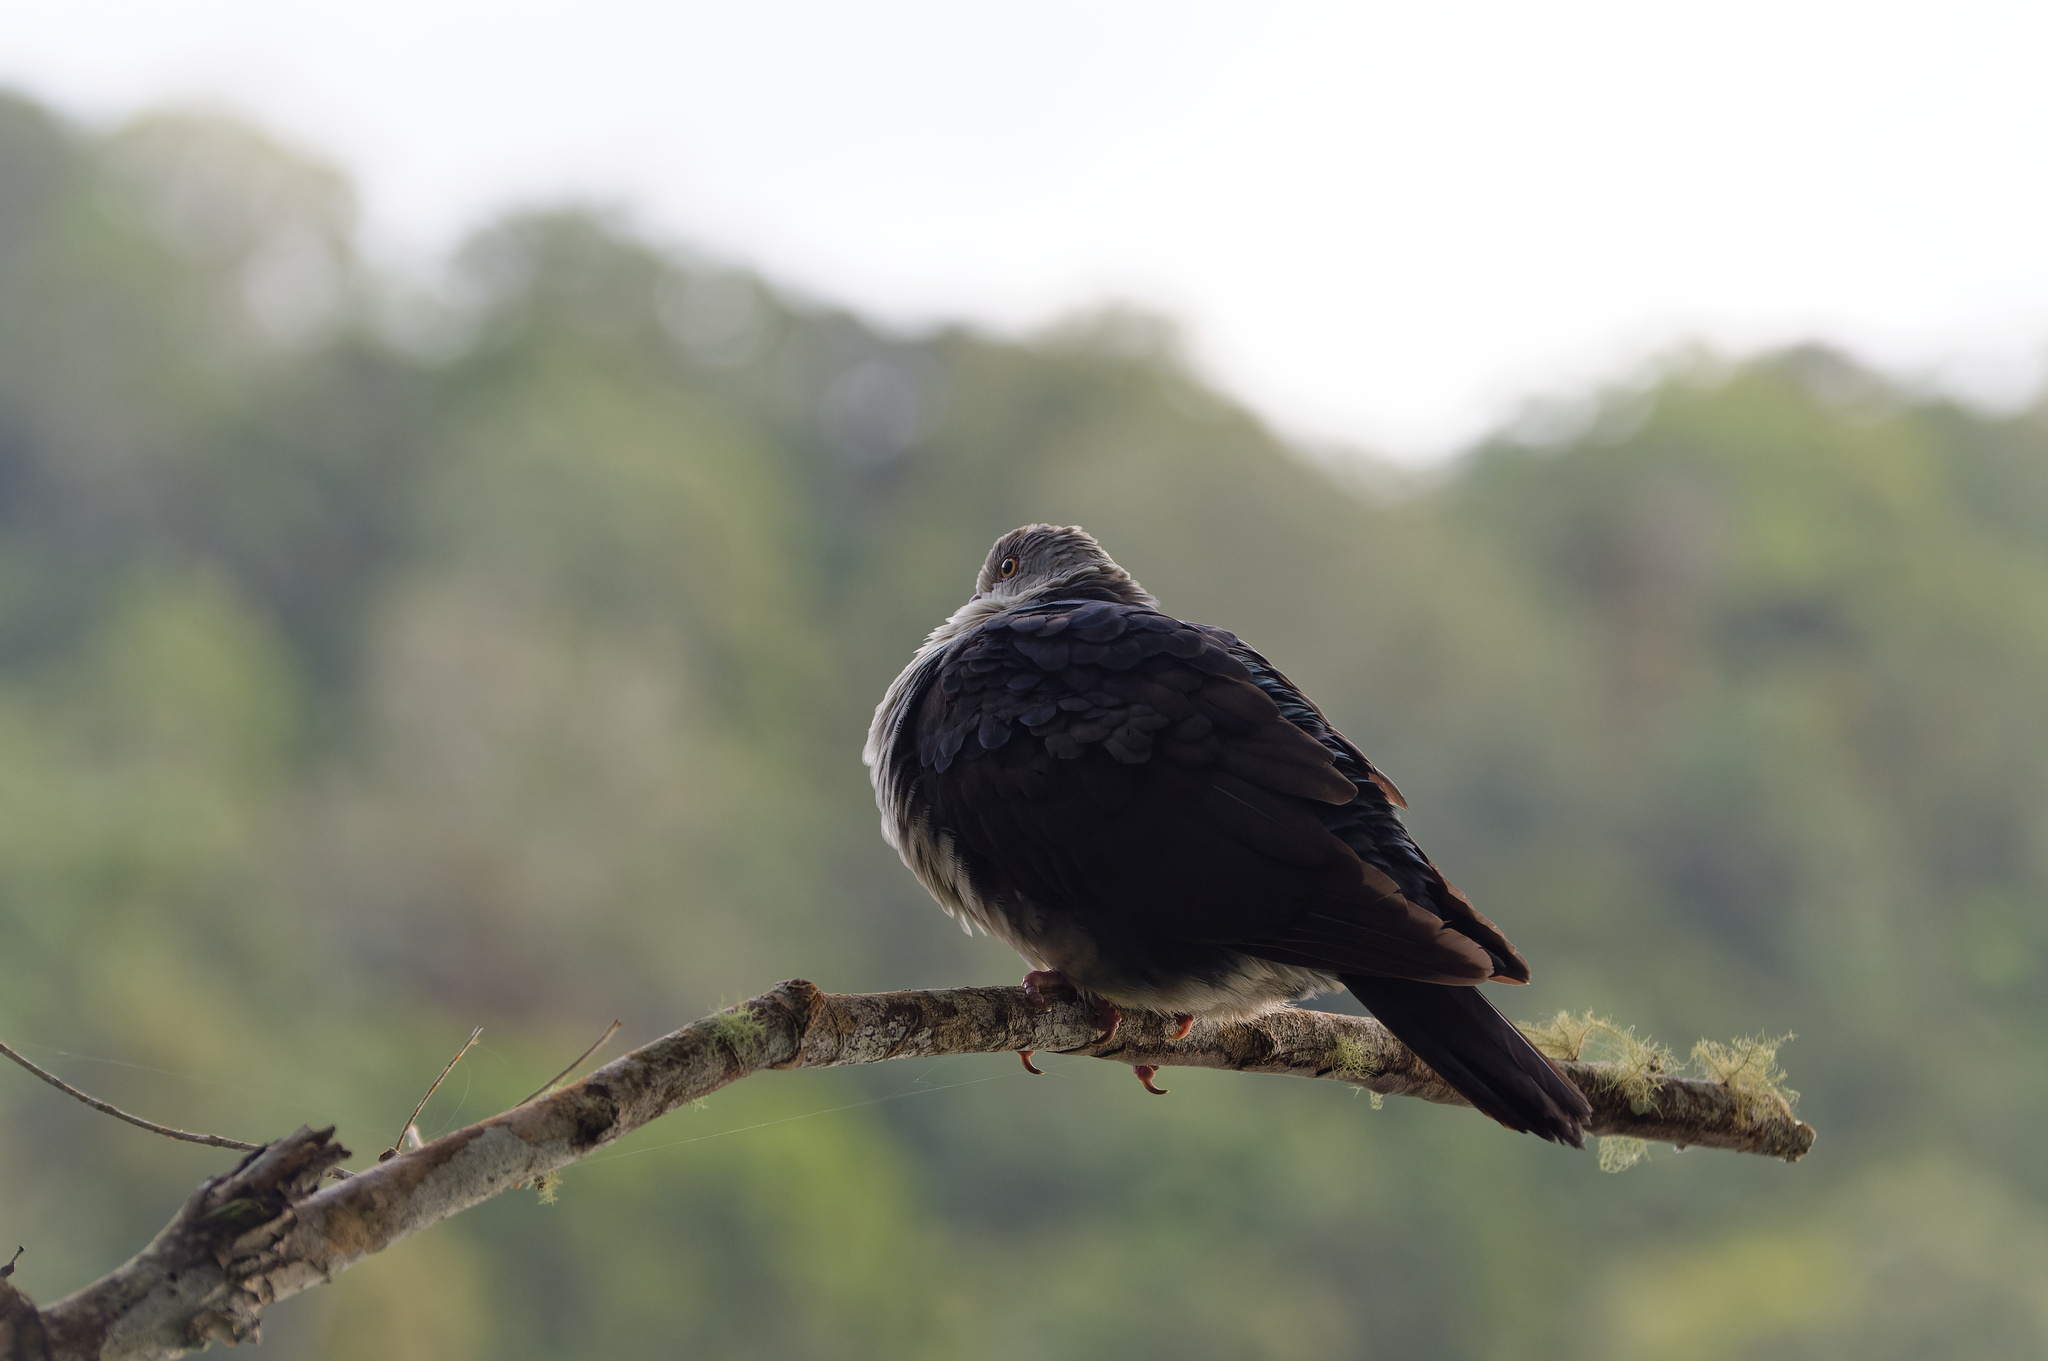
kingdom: Animalia
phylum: Chordata
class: Aves
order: Columbiformes
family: Columbidae
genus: Columba
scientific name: Columba leucomela
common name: White-headed pigeon
